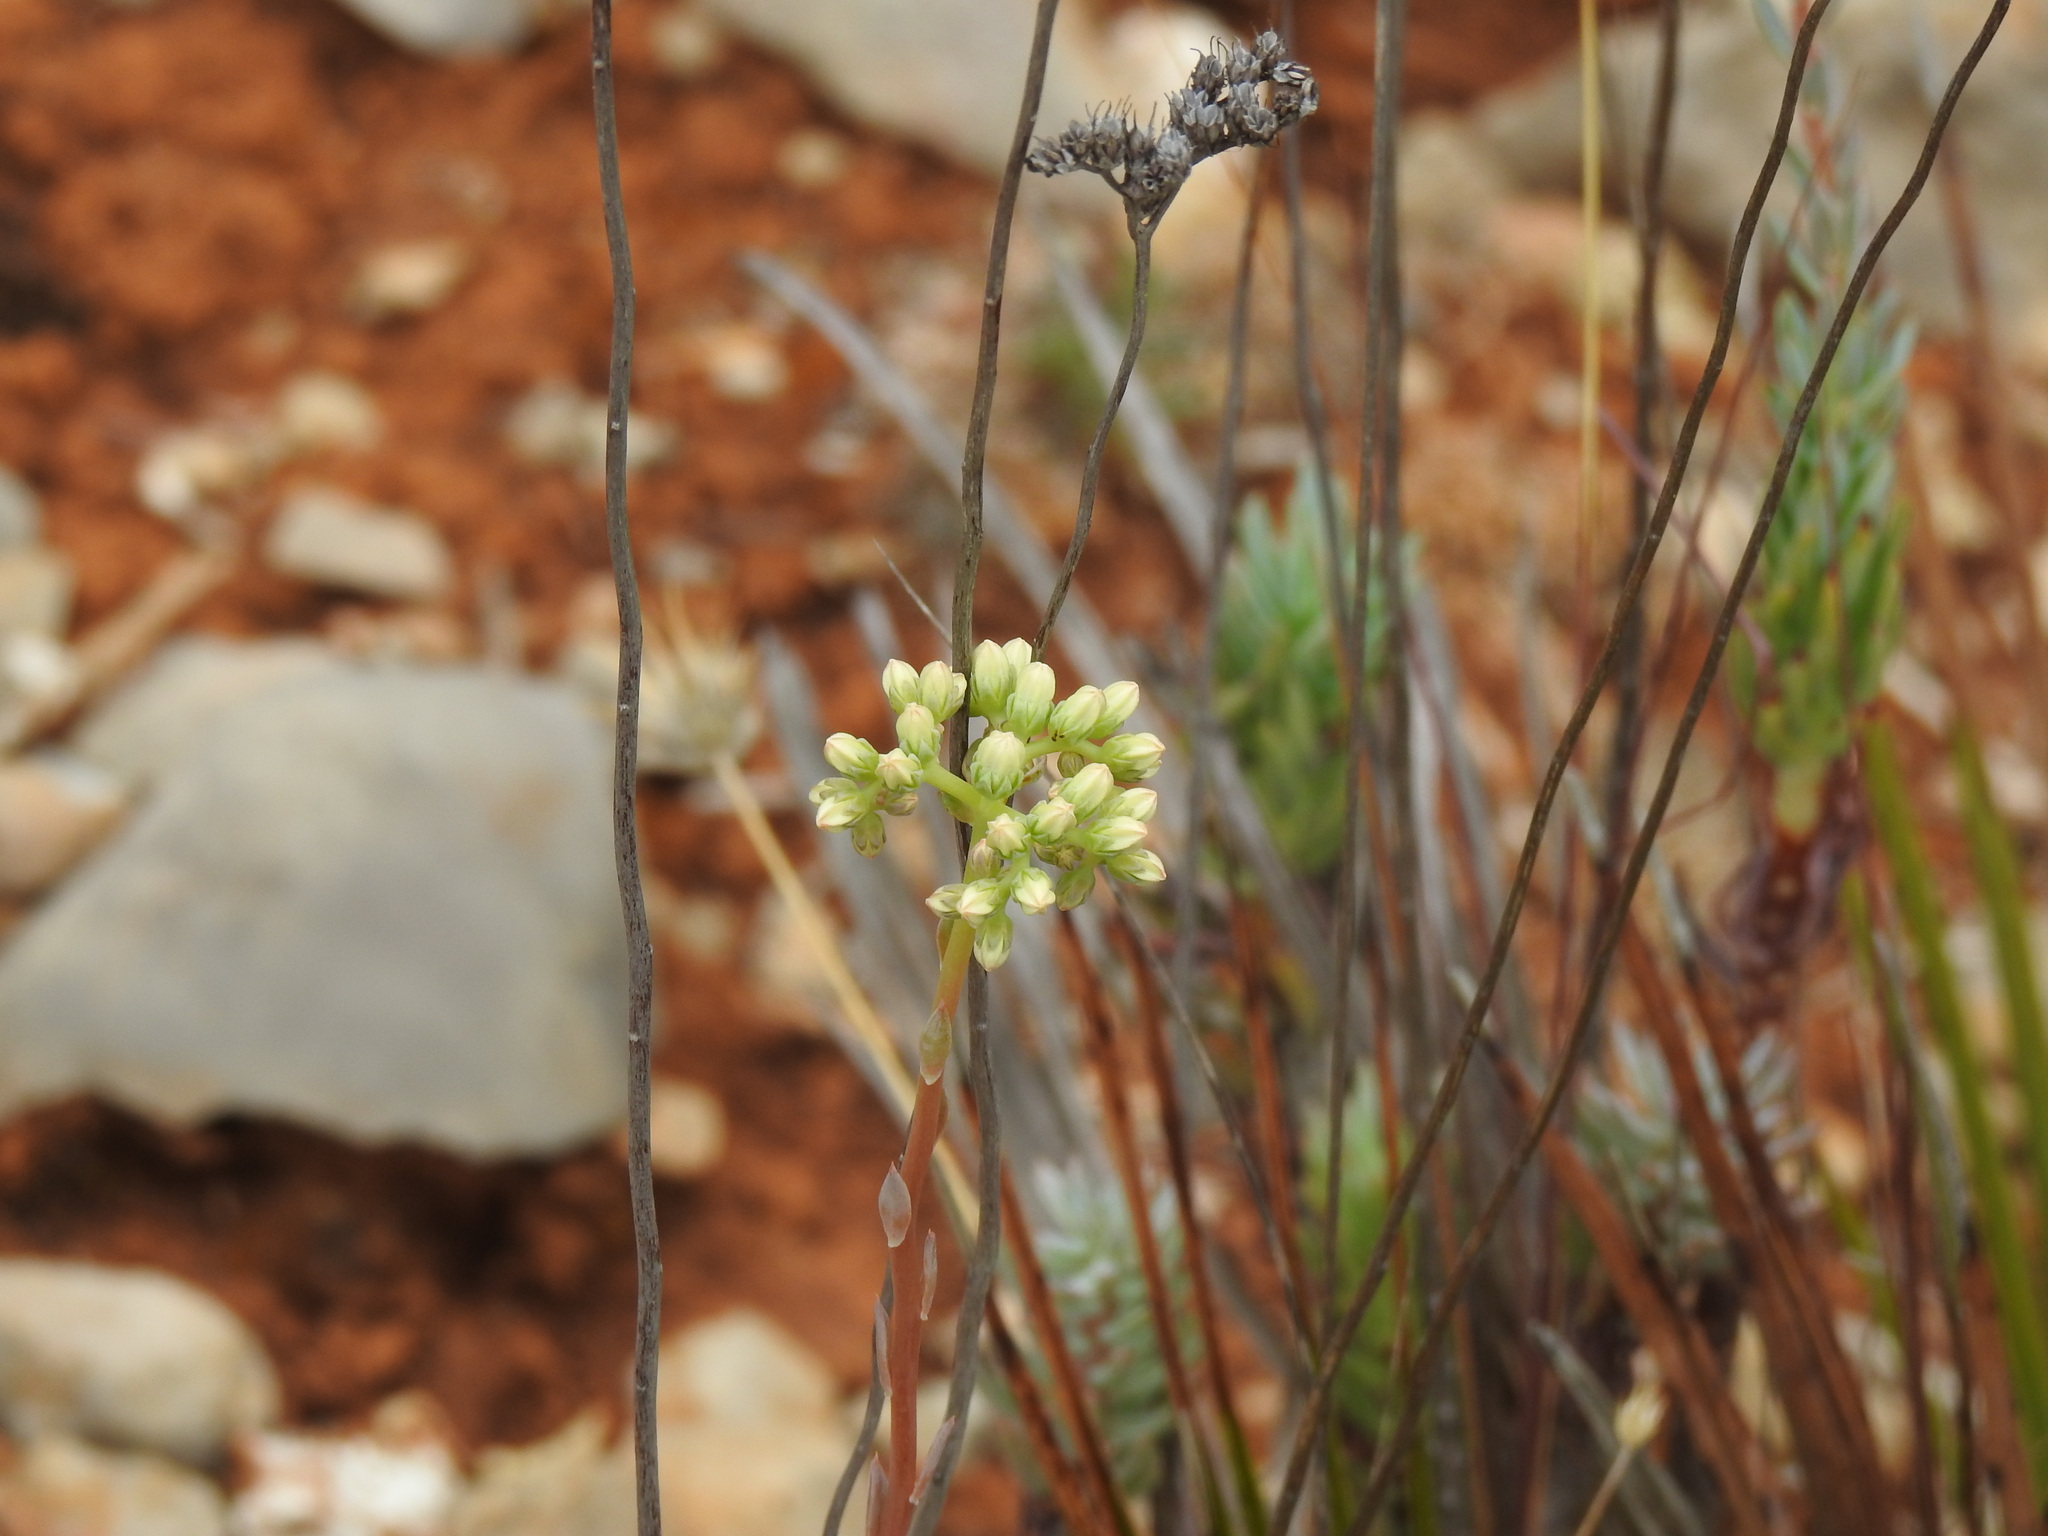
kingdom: Plantae
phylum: Tracheophyta
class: Magnoliopsida
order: Saxifragales
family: Crassulaceae
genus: Petrosedum
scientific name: Petrosedum sediforme
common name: Pale stonecrop
